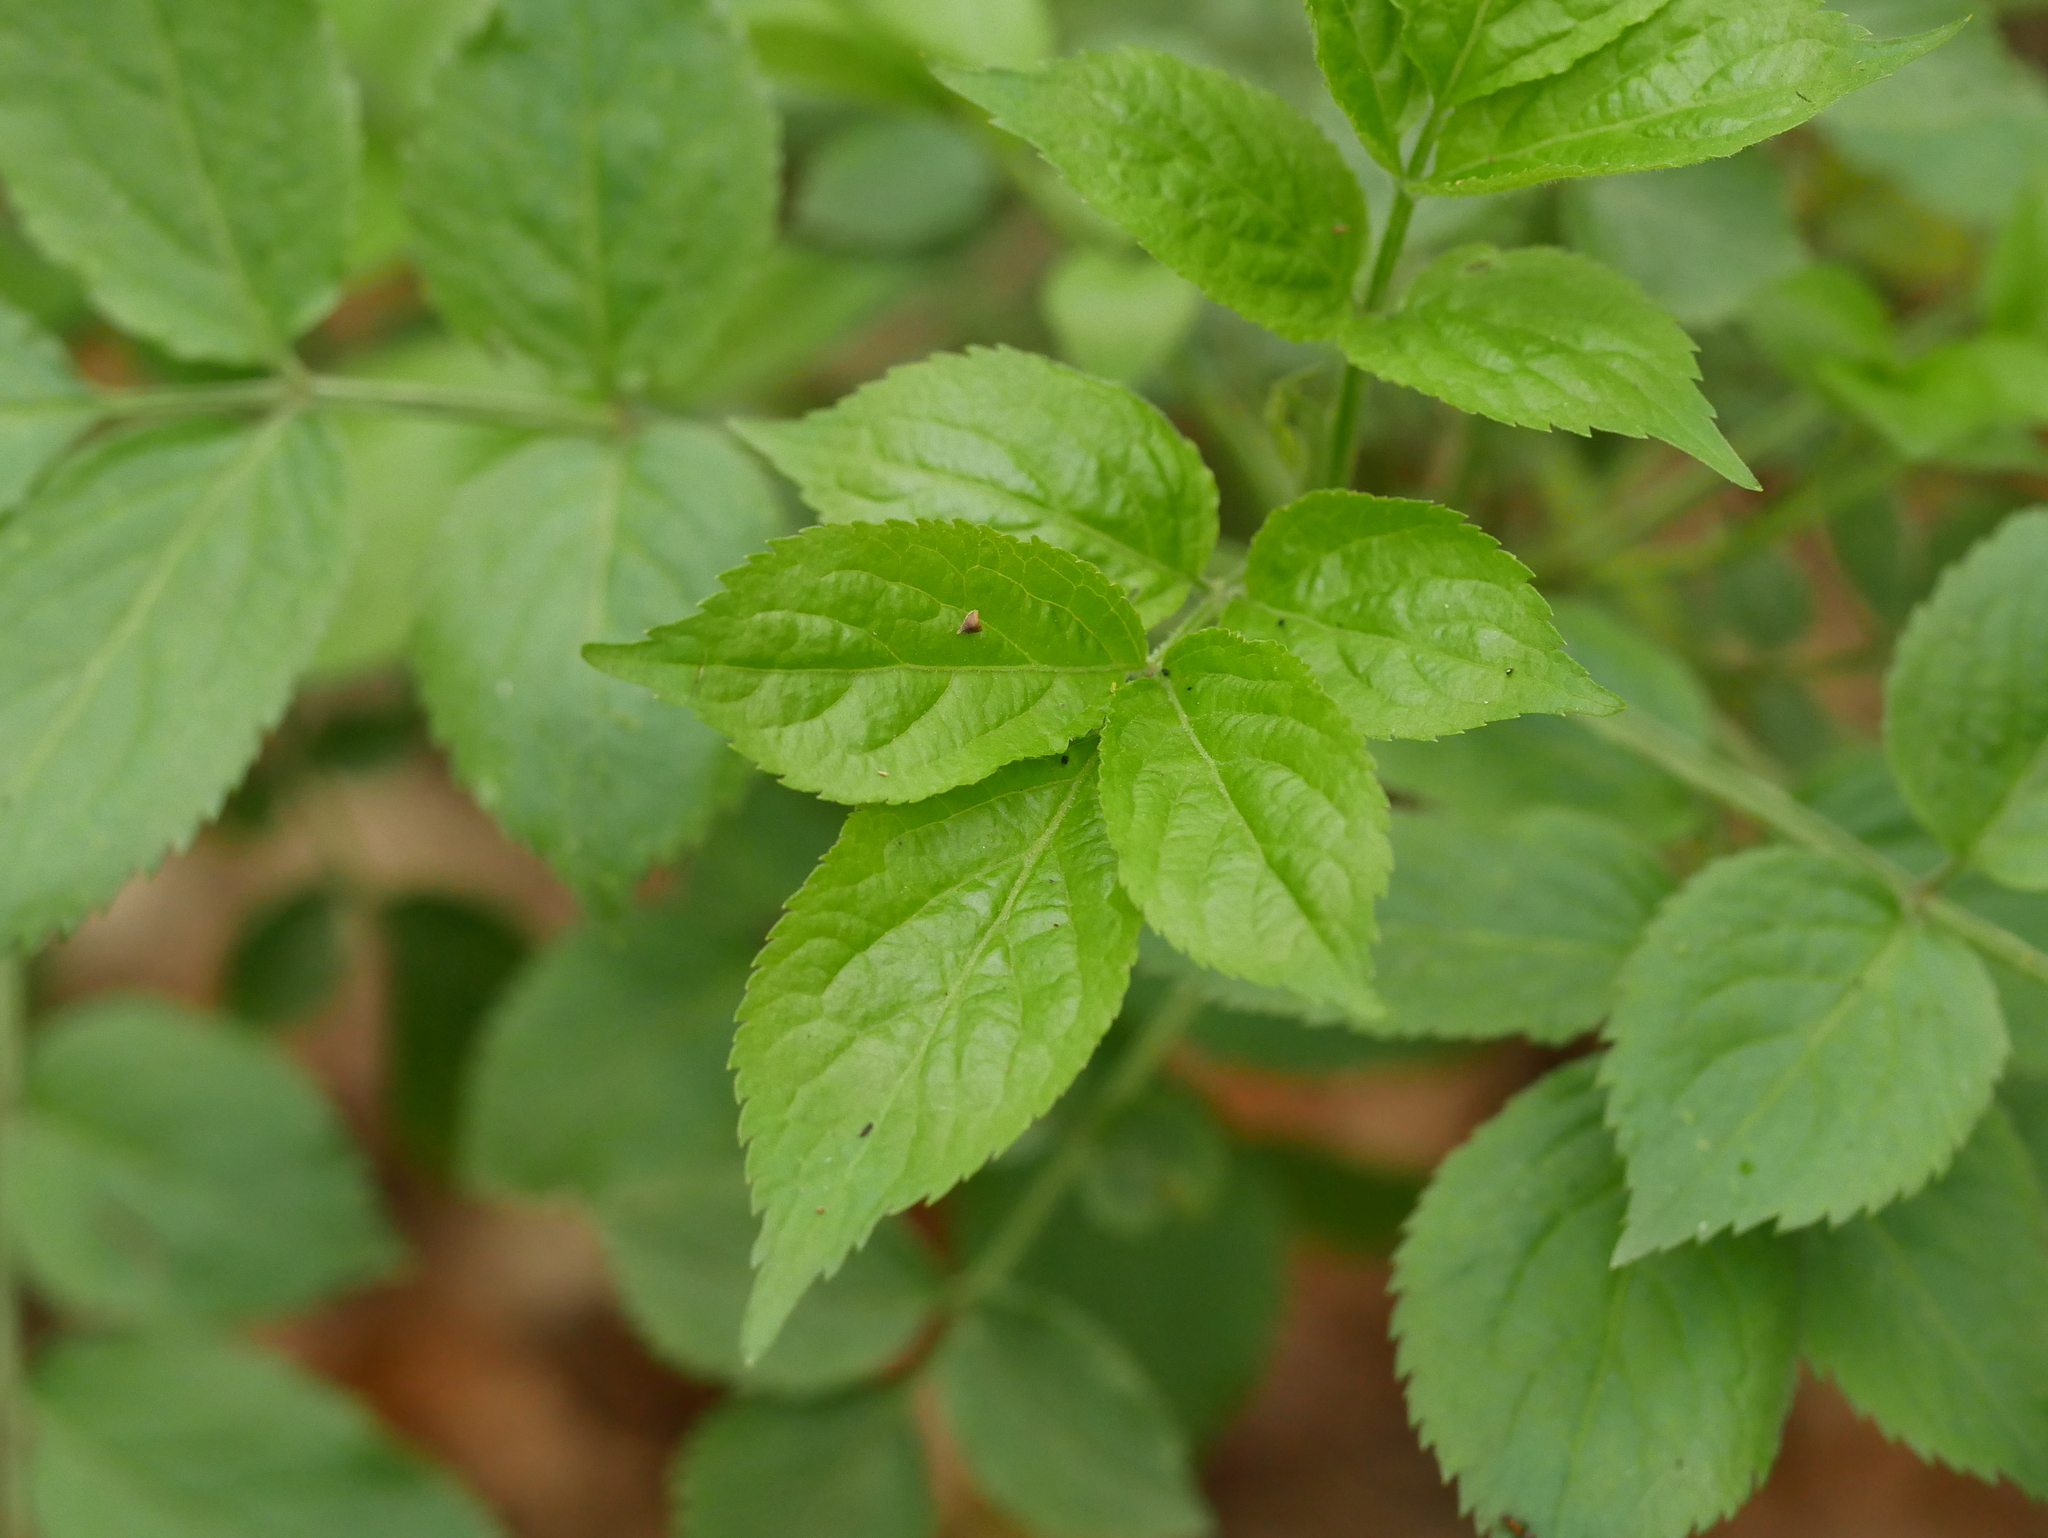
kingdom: Plantae
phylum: Tracheophyta
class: Magnoliopsida
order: Dipsacales
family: Viburnaceae
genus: Sambucus
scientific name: Sambucus nigra
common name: Elder
